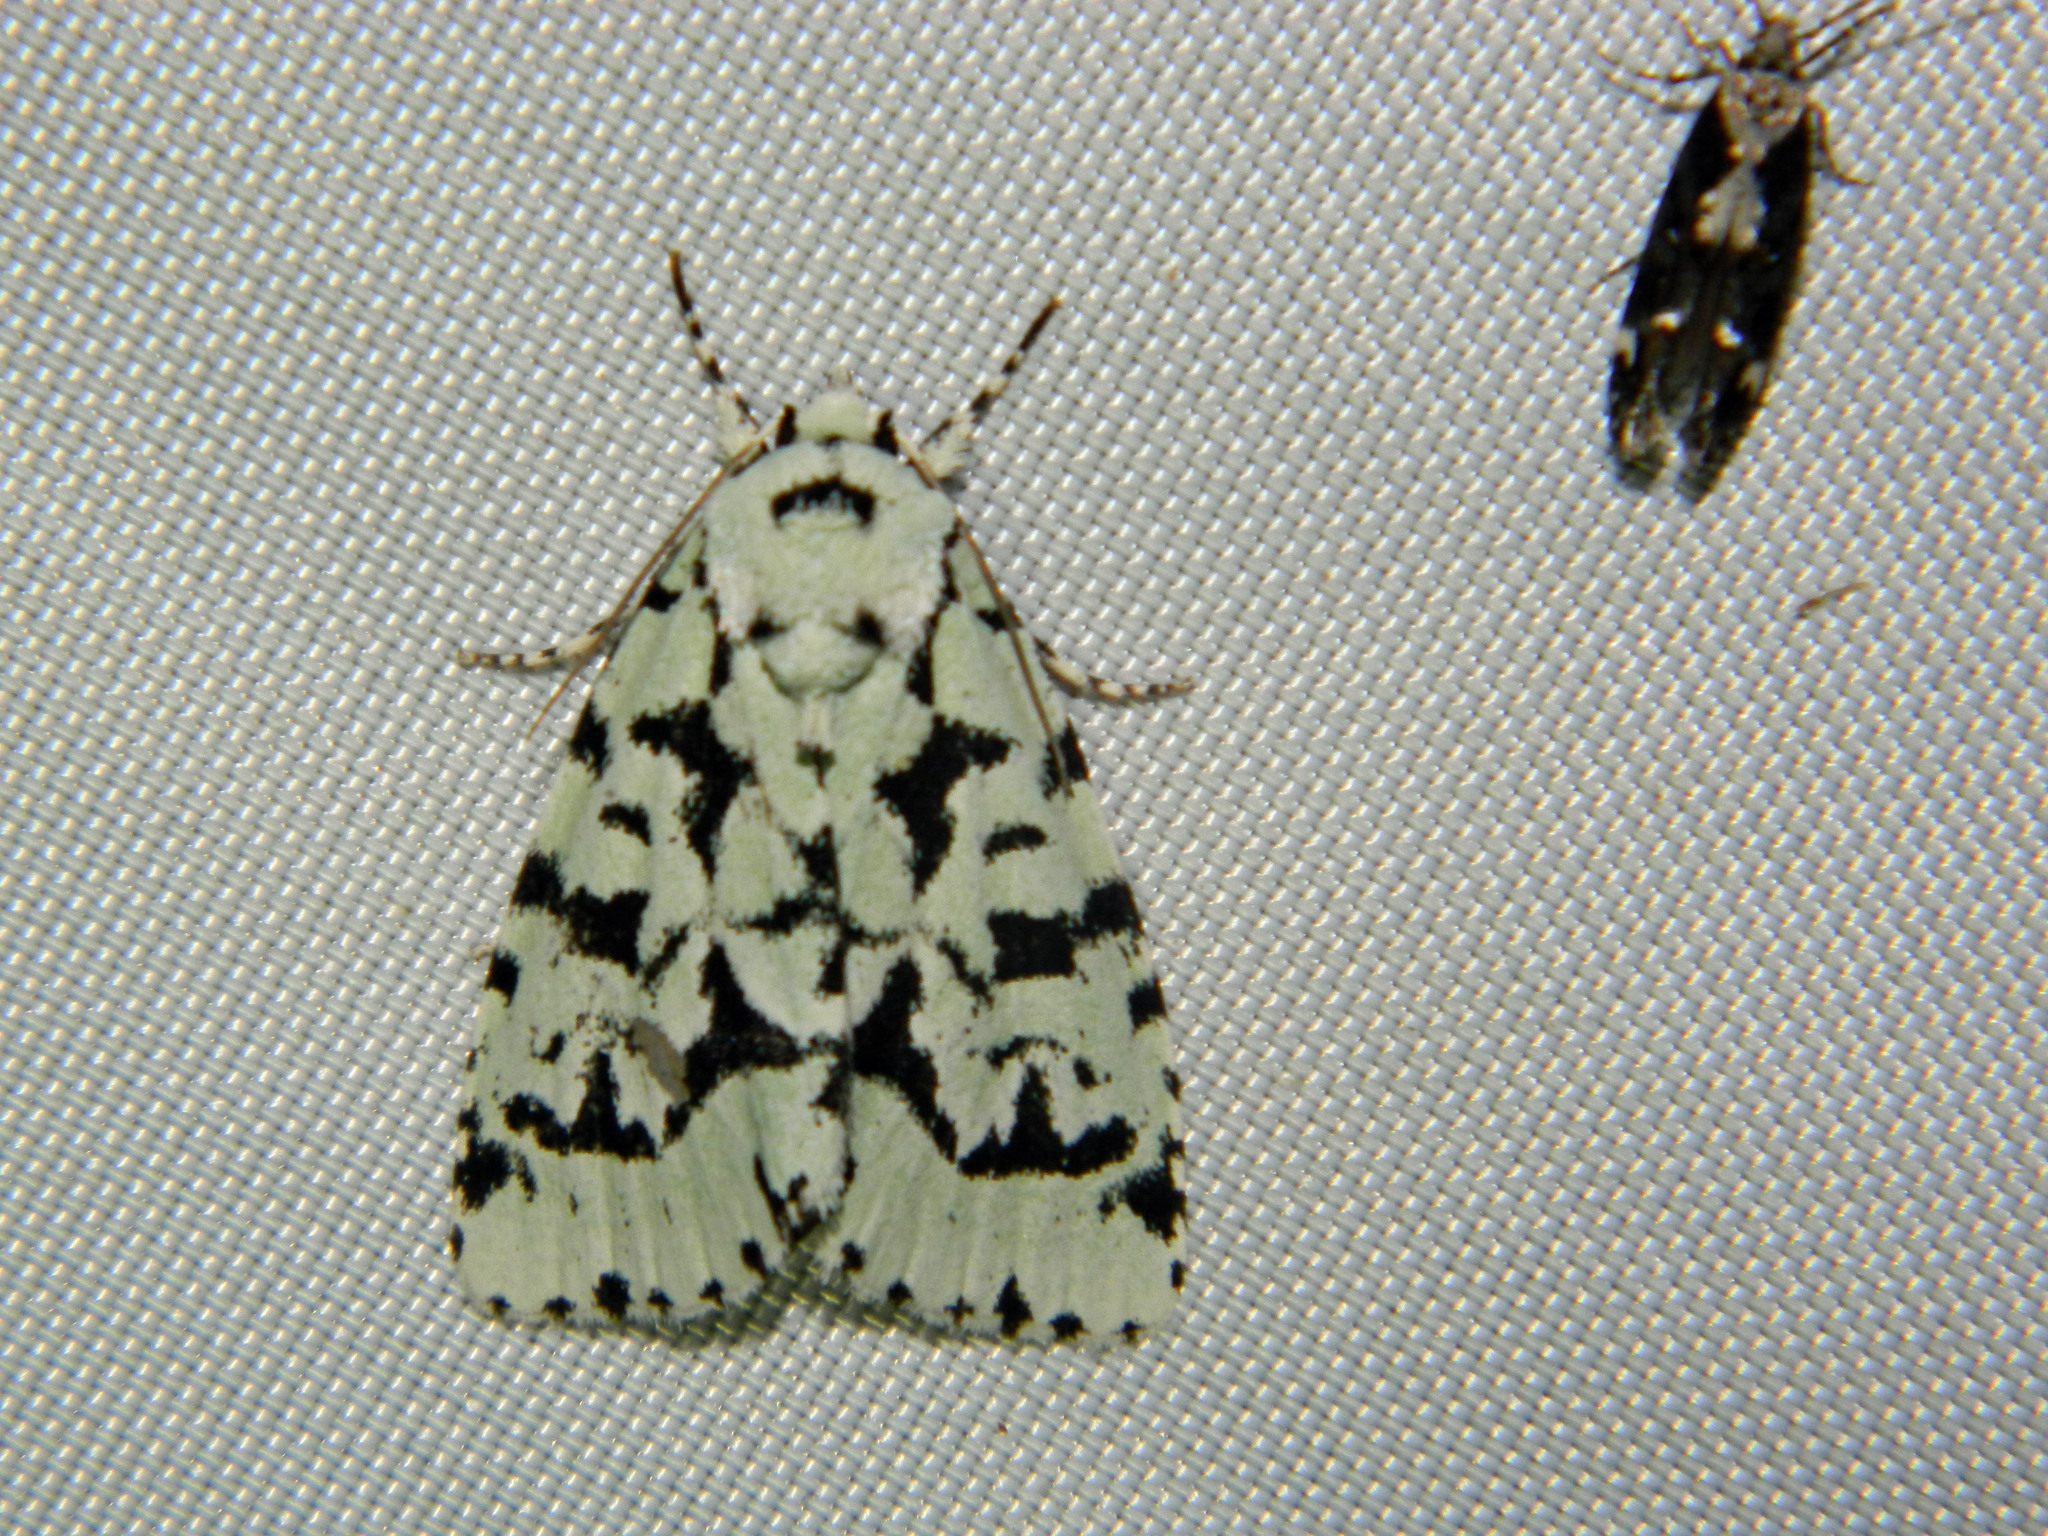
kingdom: Animalia
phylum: Arthropoda
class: Insecta
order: Lepidoptera
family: Noctuidae
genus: Acronicta
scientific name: Acronicta fallax
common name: Green marvel
